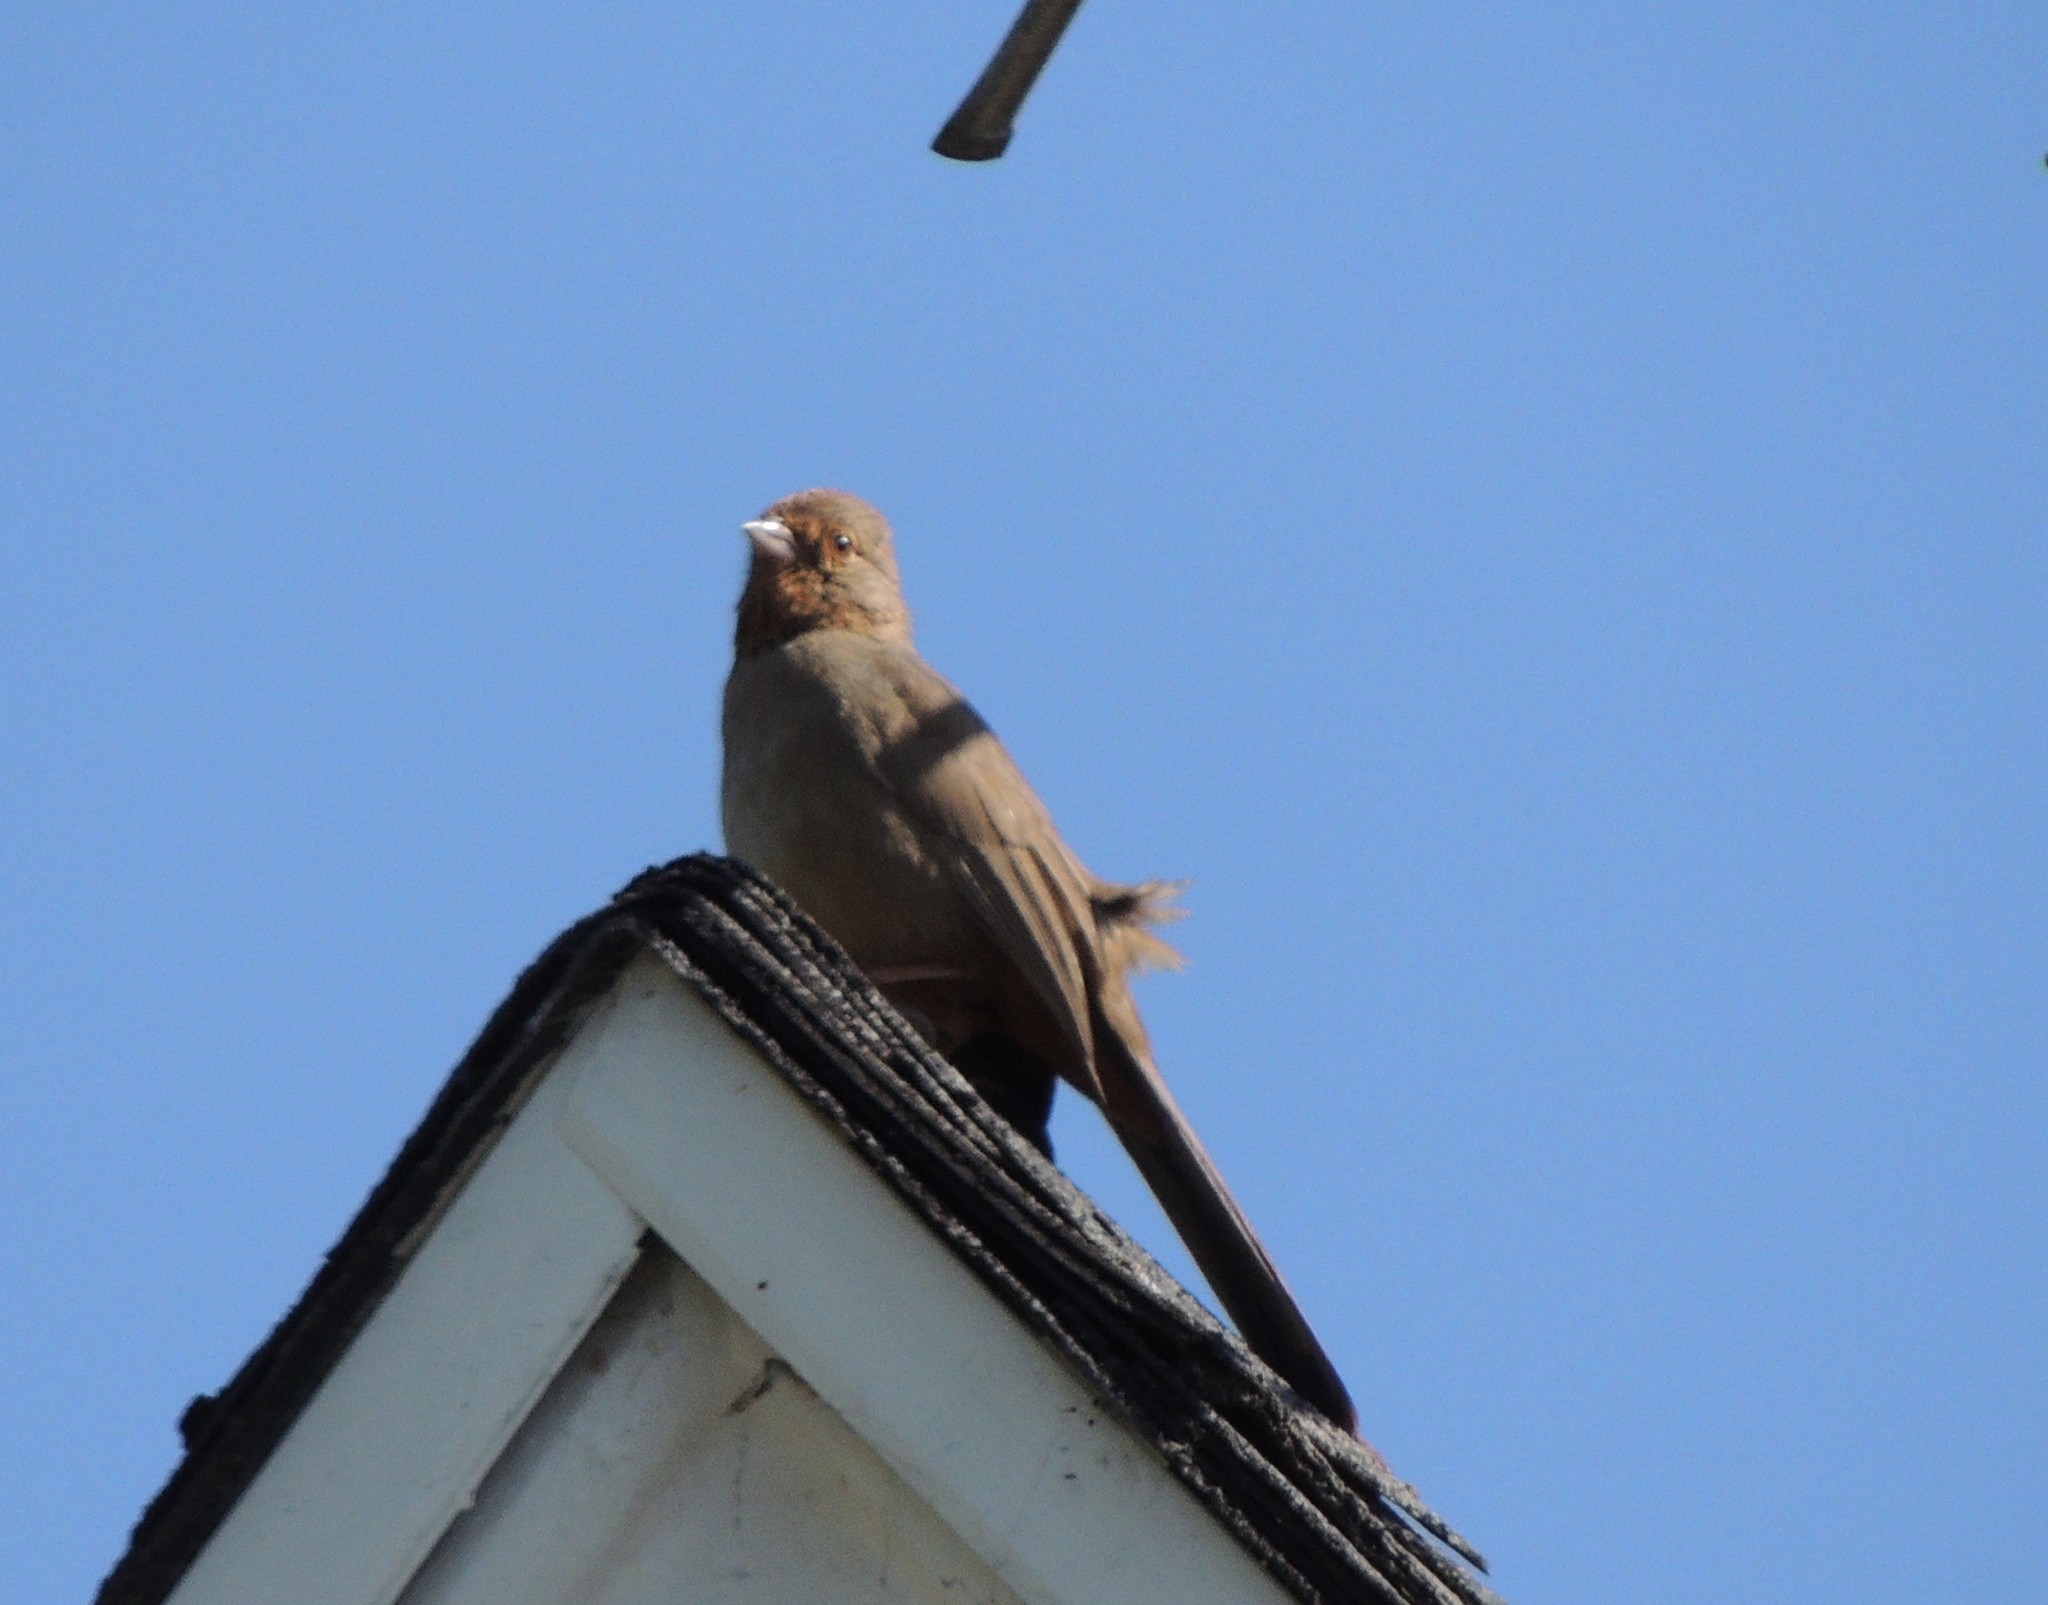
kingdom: Animalia
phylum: Chordata
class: Aves
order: Passeriformes
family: Passerellidae
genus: Melozone
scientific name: Melozone crissalis
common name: California towhee
